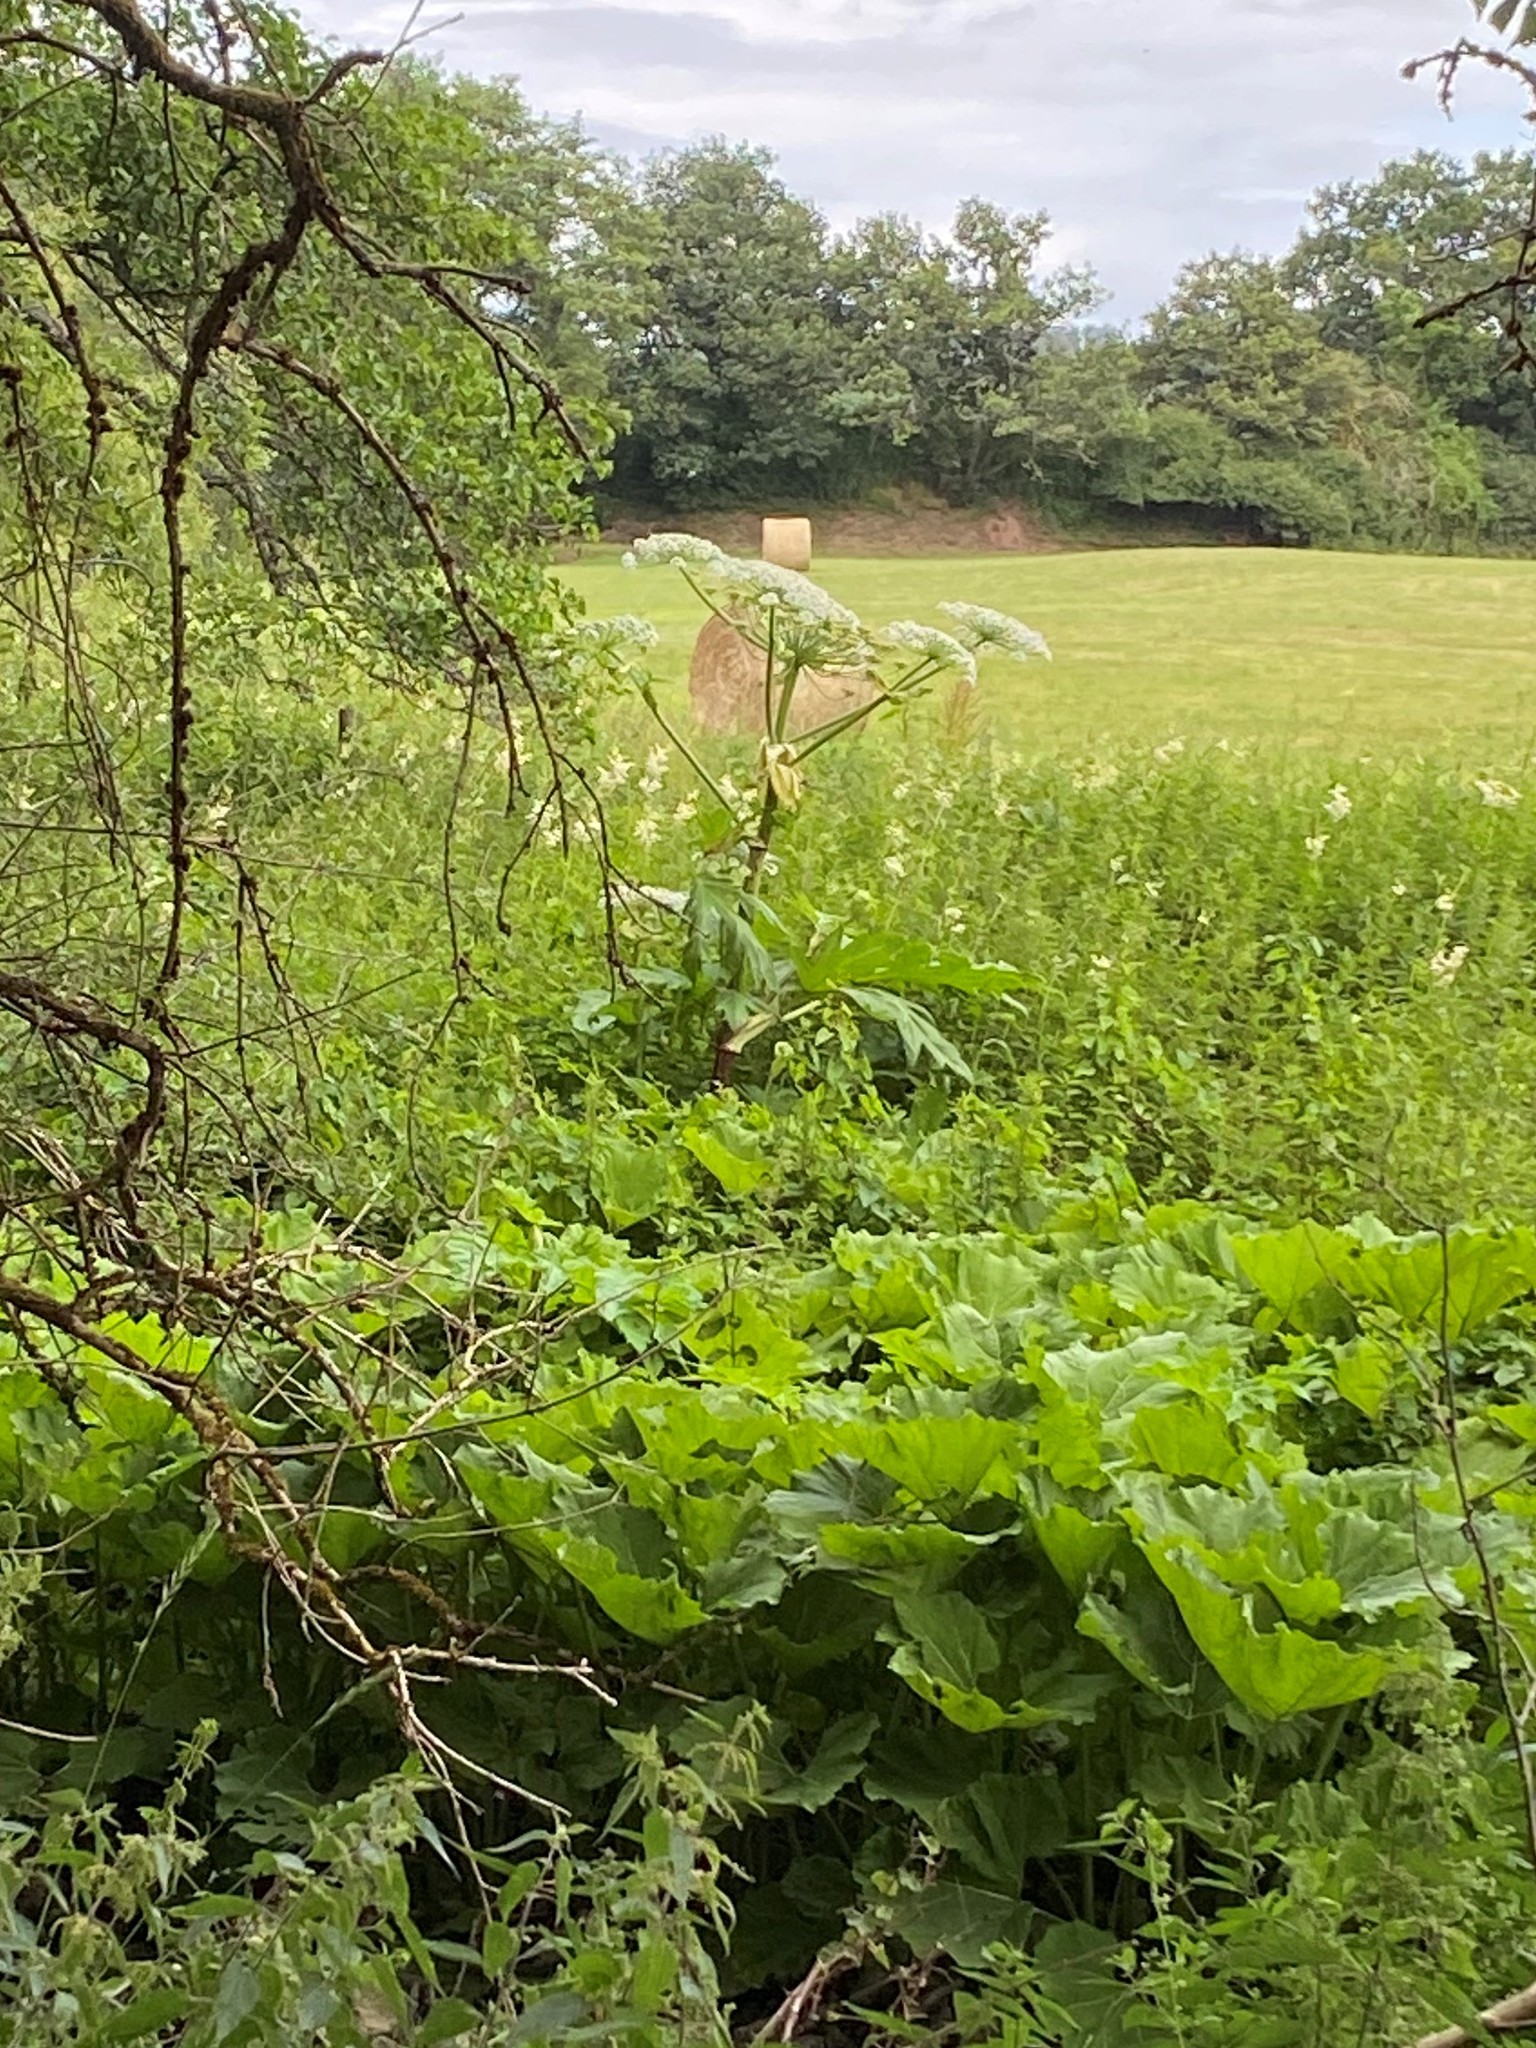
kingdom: Plantae
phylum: Tracheophyta
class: Magnoliopsida
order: Apiales
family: Apiaceae
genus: Heracleum
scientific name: Heracleum mantegazzianum
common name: Giant hogweed
